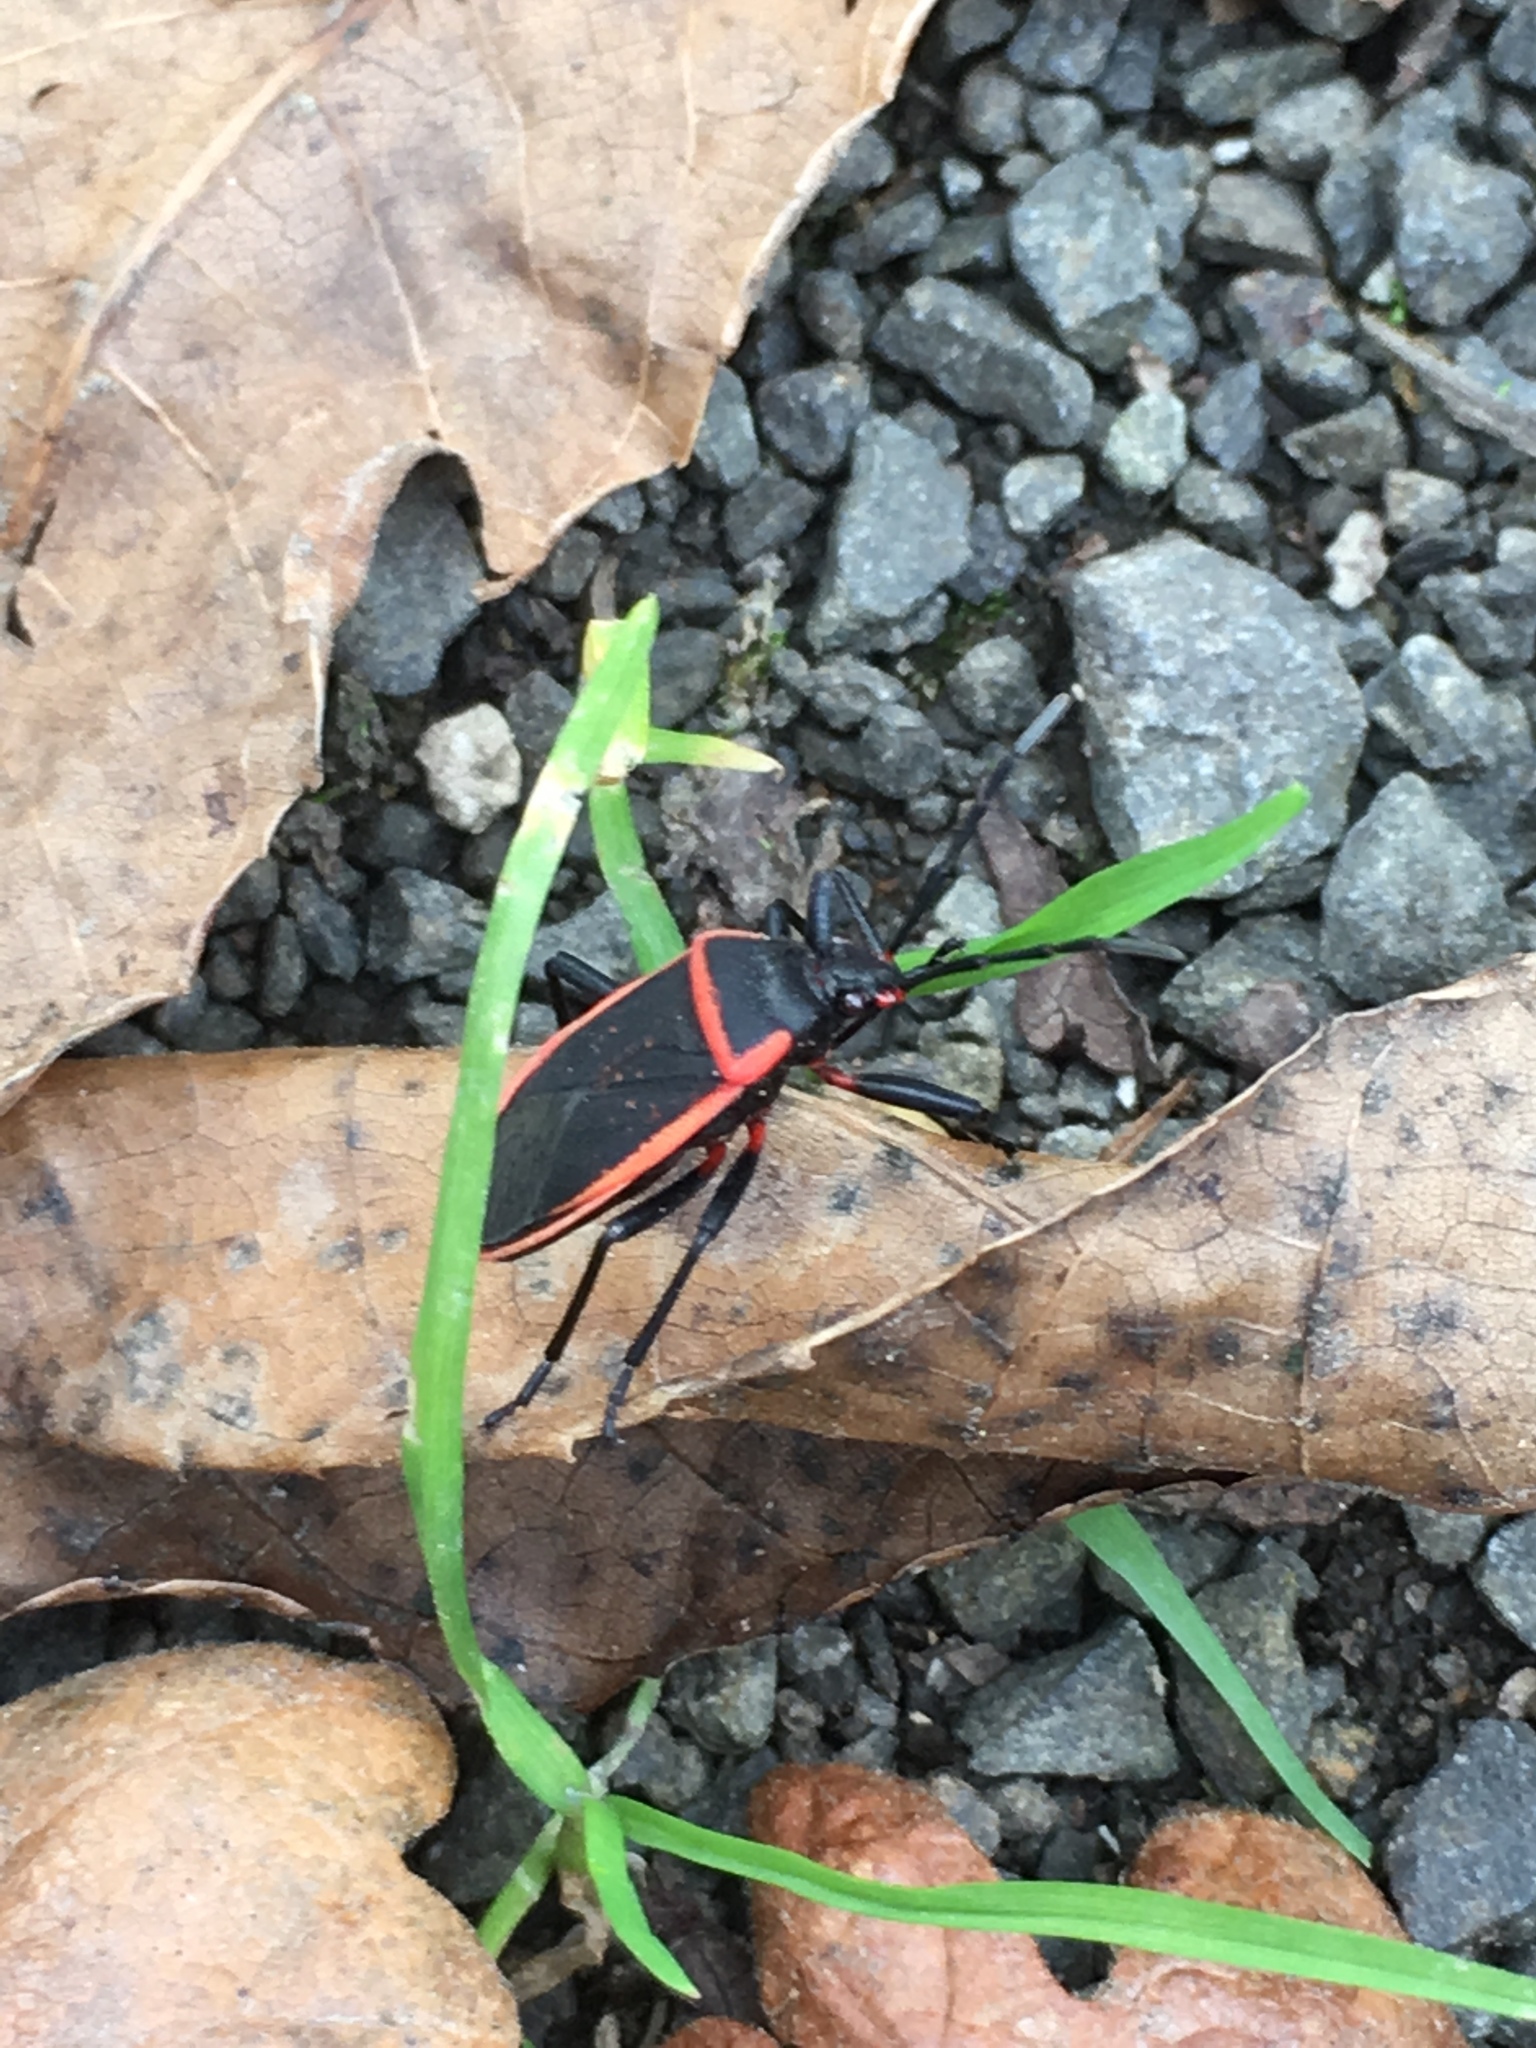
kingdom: Animalia
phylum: Arthropoda
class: Insecta
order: Hemiptera
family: Largidae
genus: Largus
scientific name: Largus cinctus
